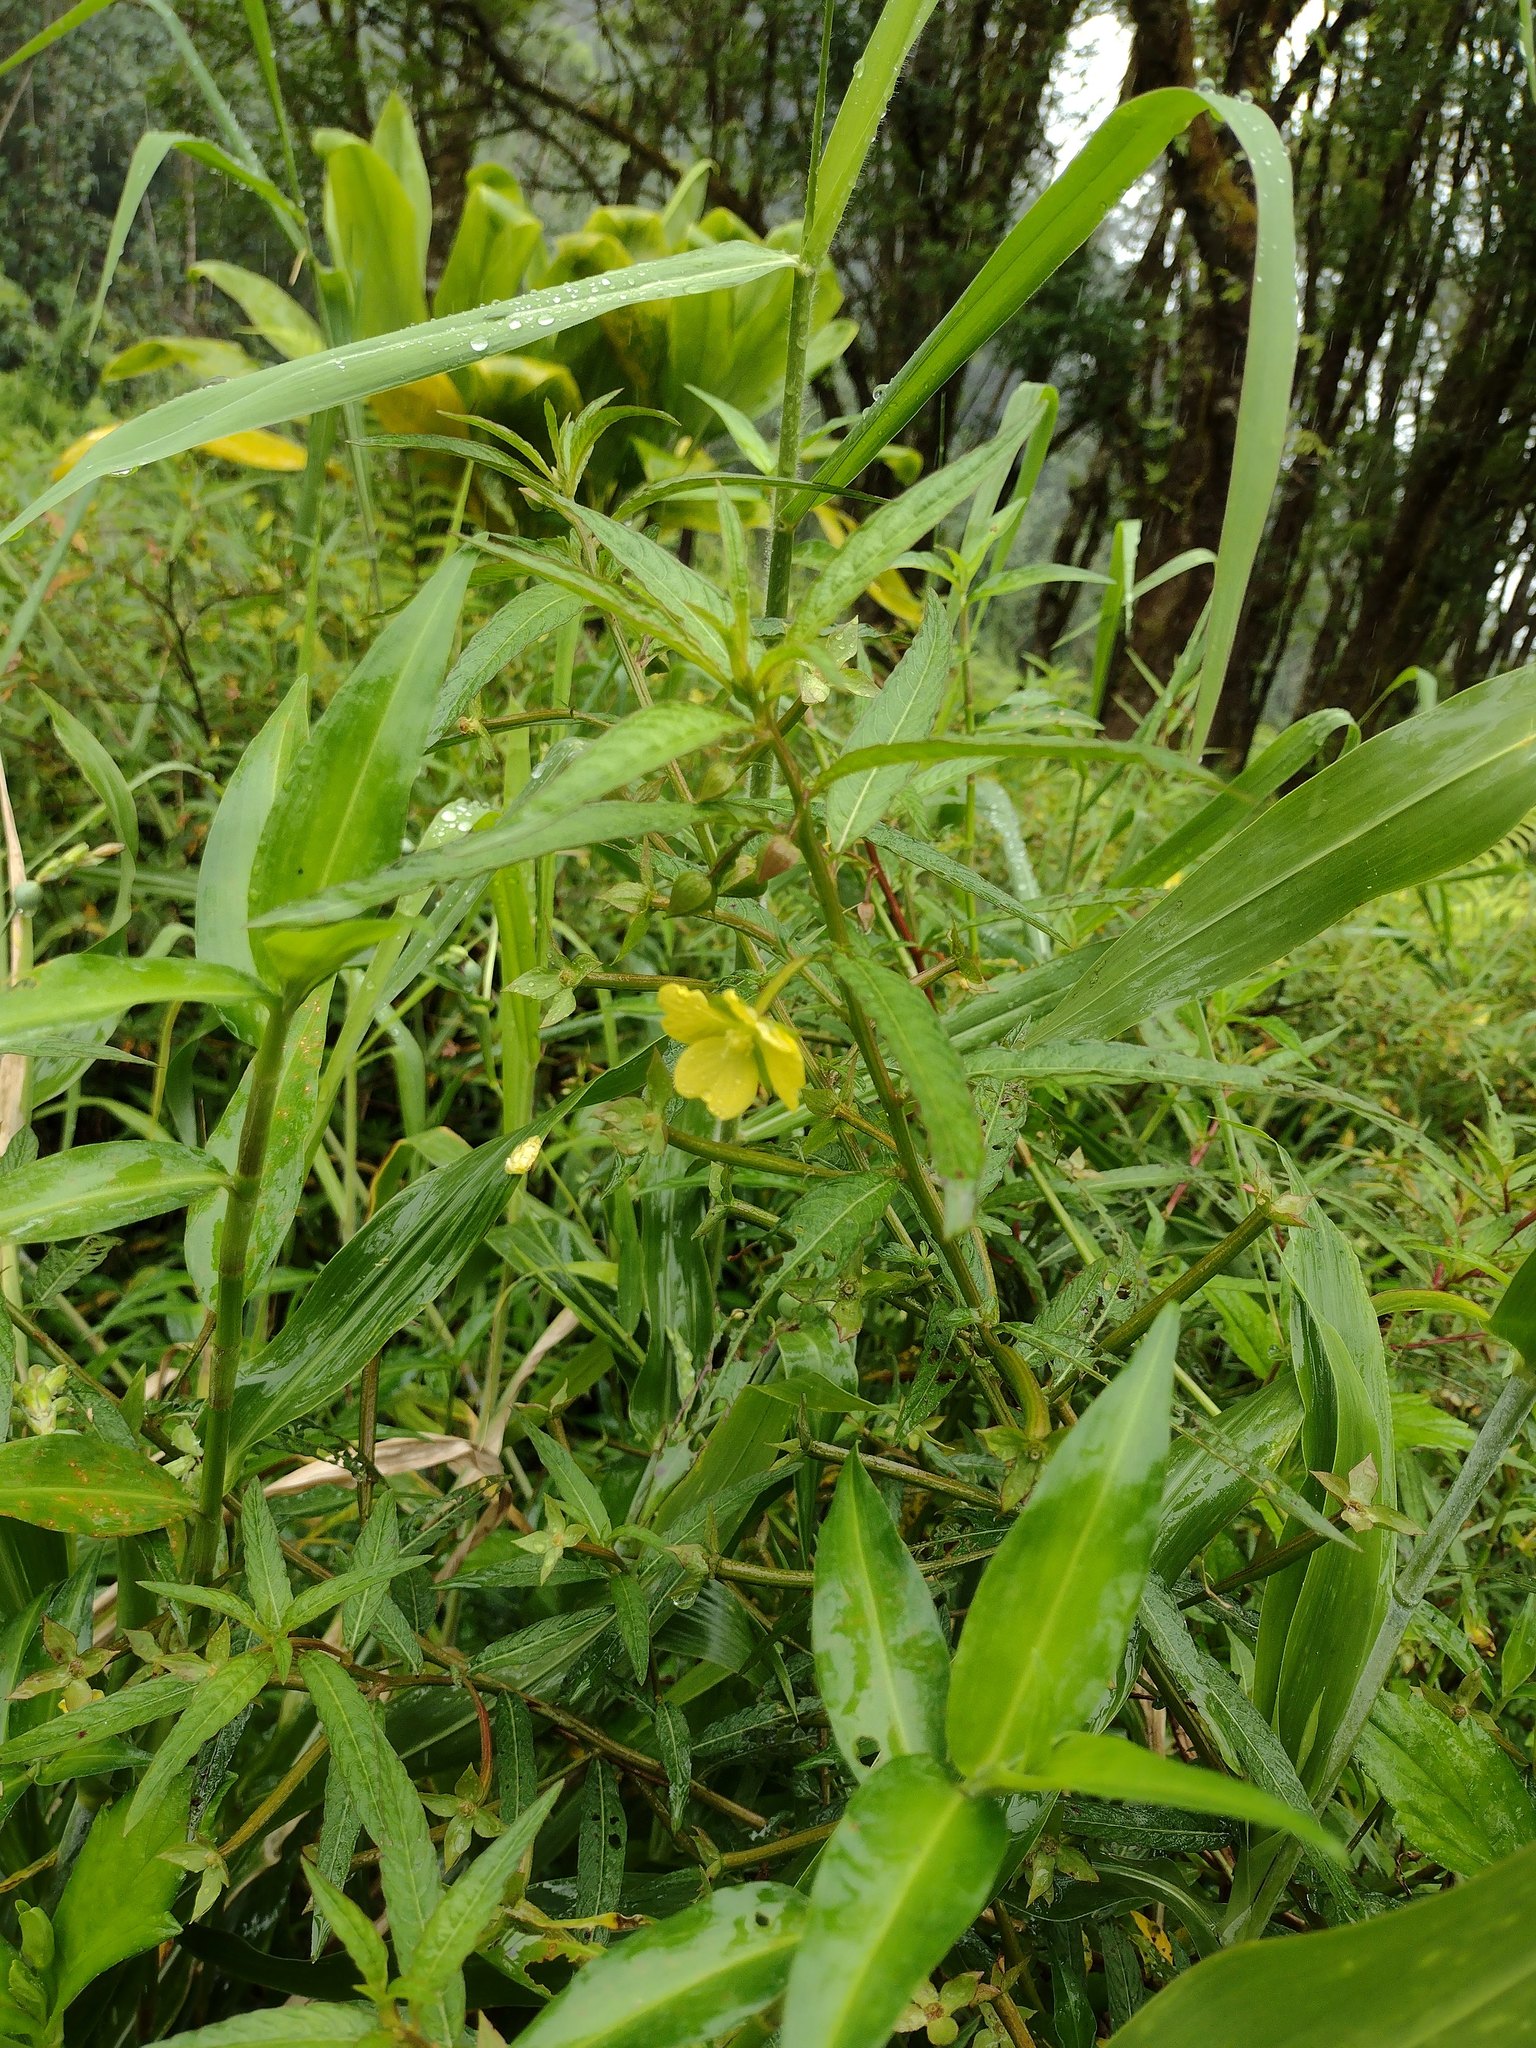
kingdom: Plantae
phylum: Tracheophyta
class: Magnoliopsida
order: Myrtales
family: Onagraceae
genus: Ludwigia
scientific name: Ludwigia octovalvis
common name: Water-primrose
